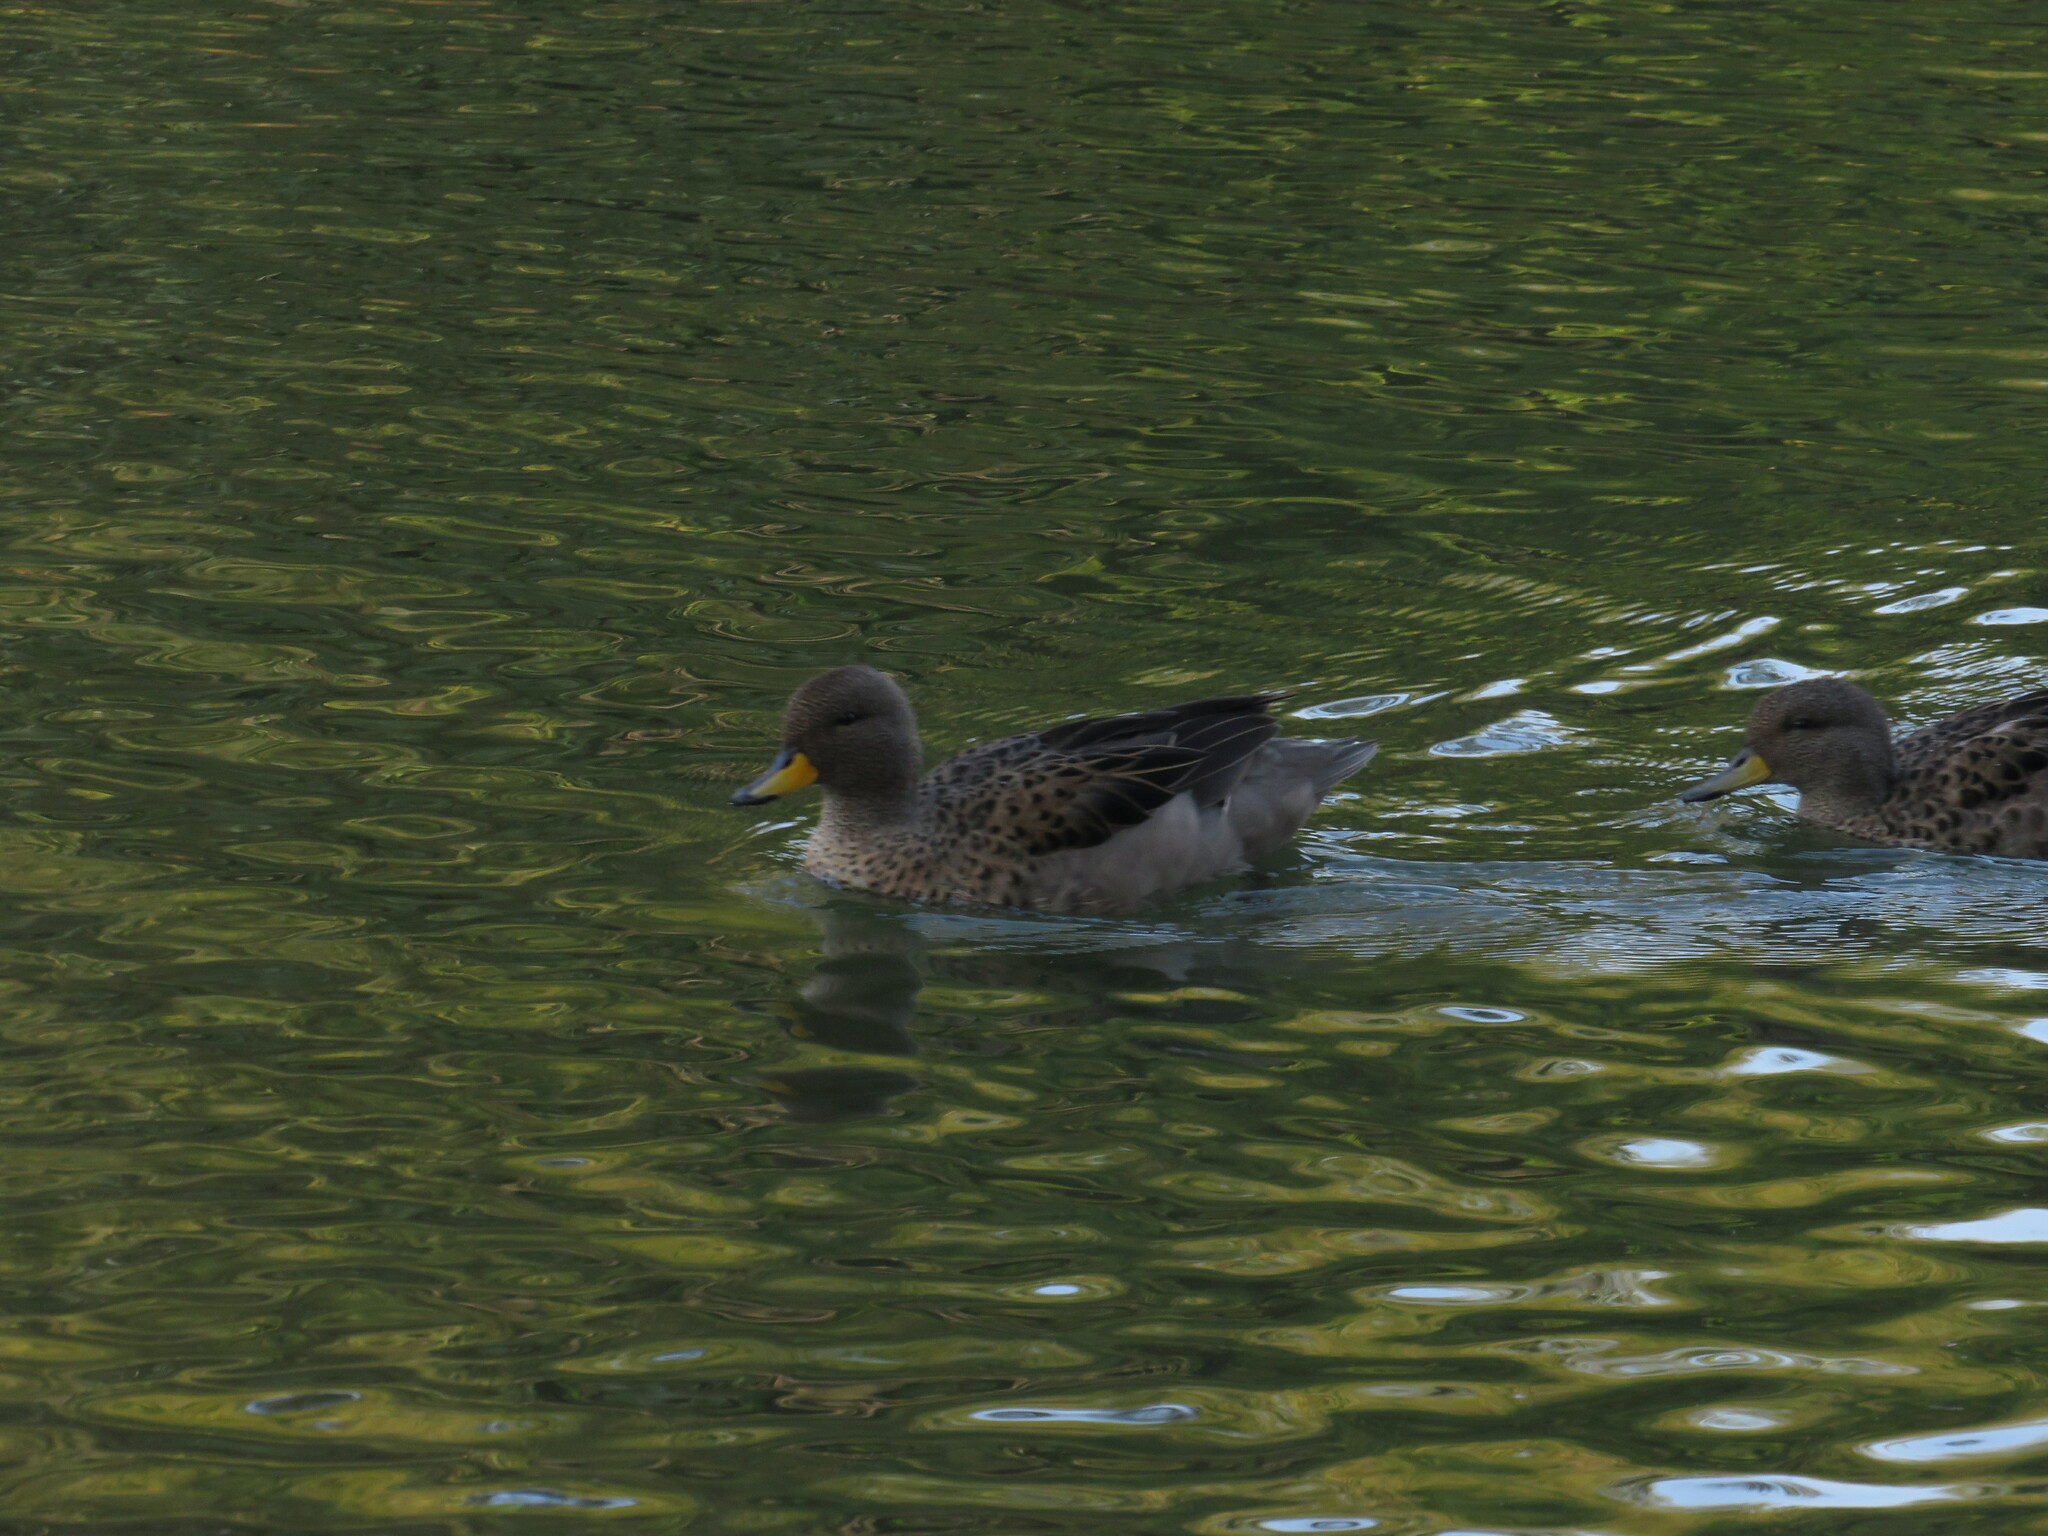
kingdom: Animalia
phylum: Chordata
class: Aves
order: Anseriformes
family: Anatidae
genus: Anas
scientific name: Anas flavirostris
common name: Yellow-billed teal
